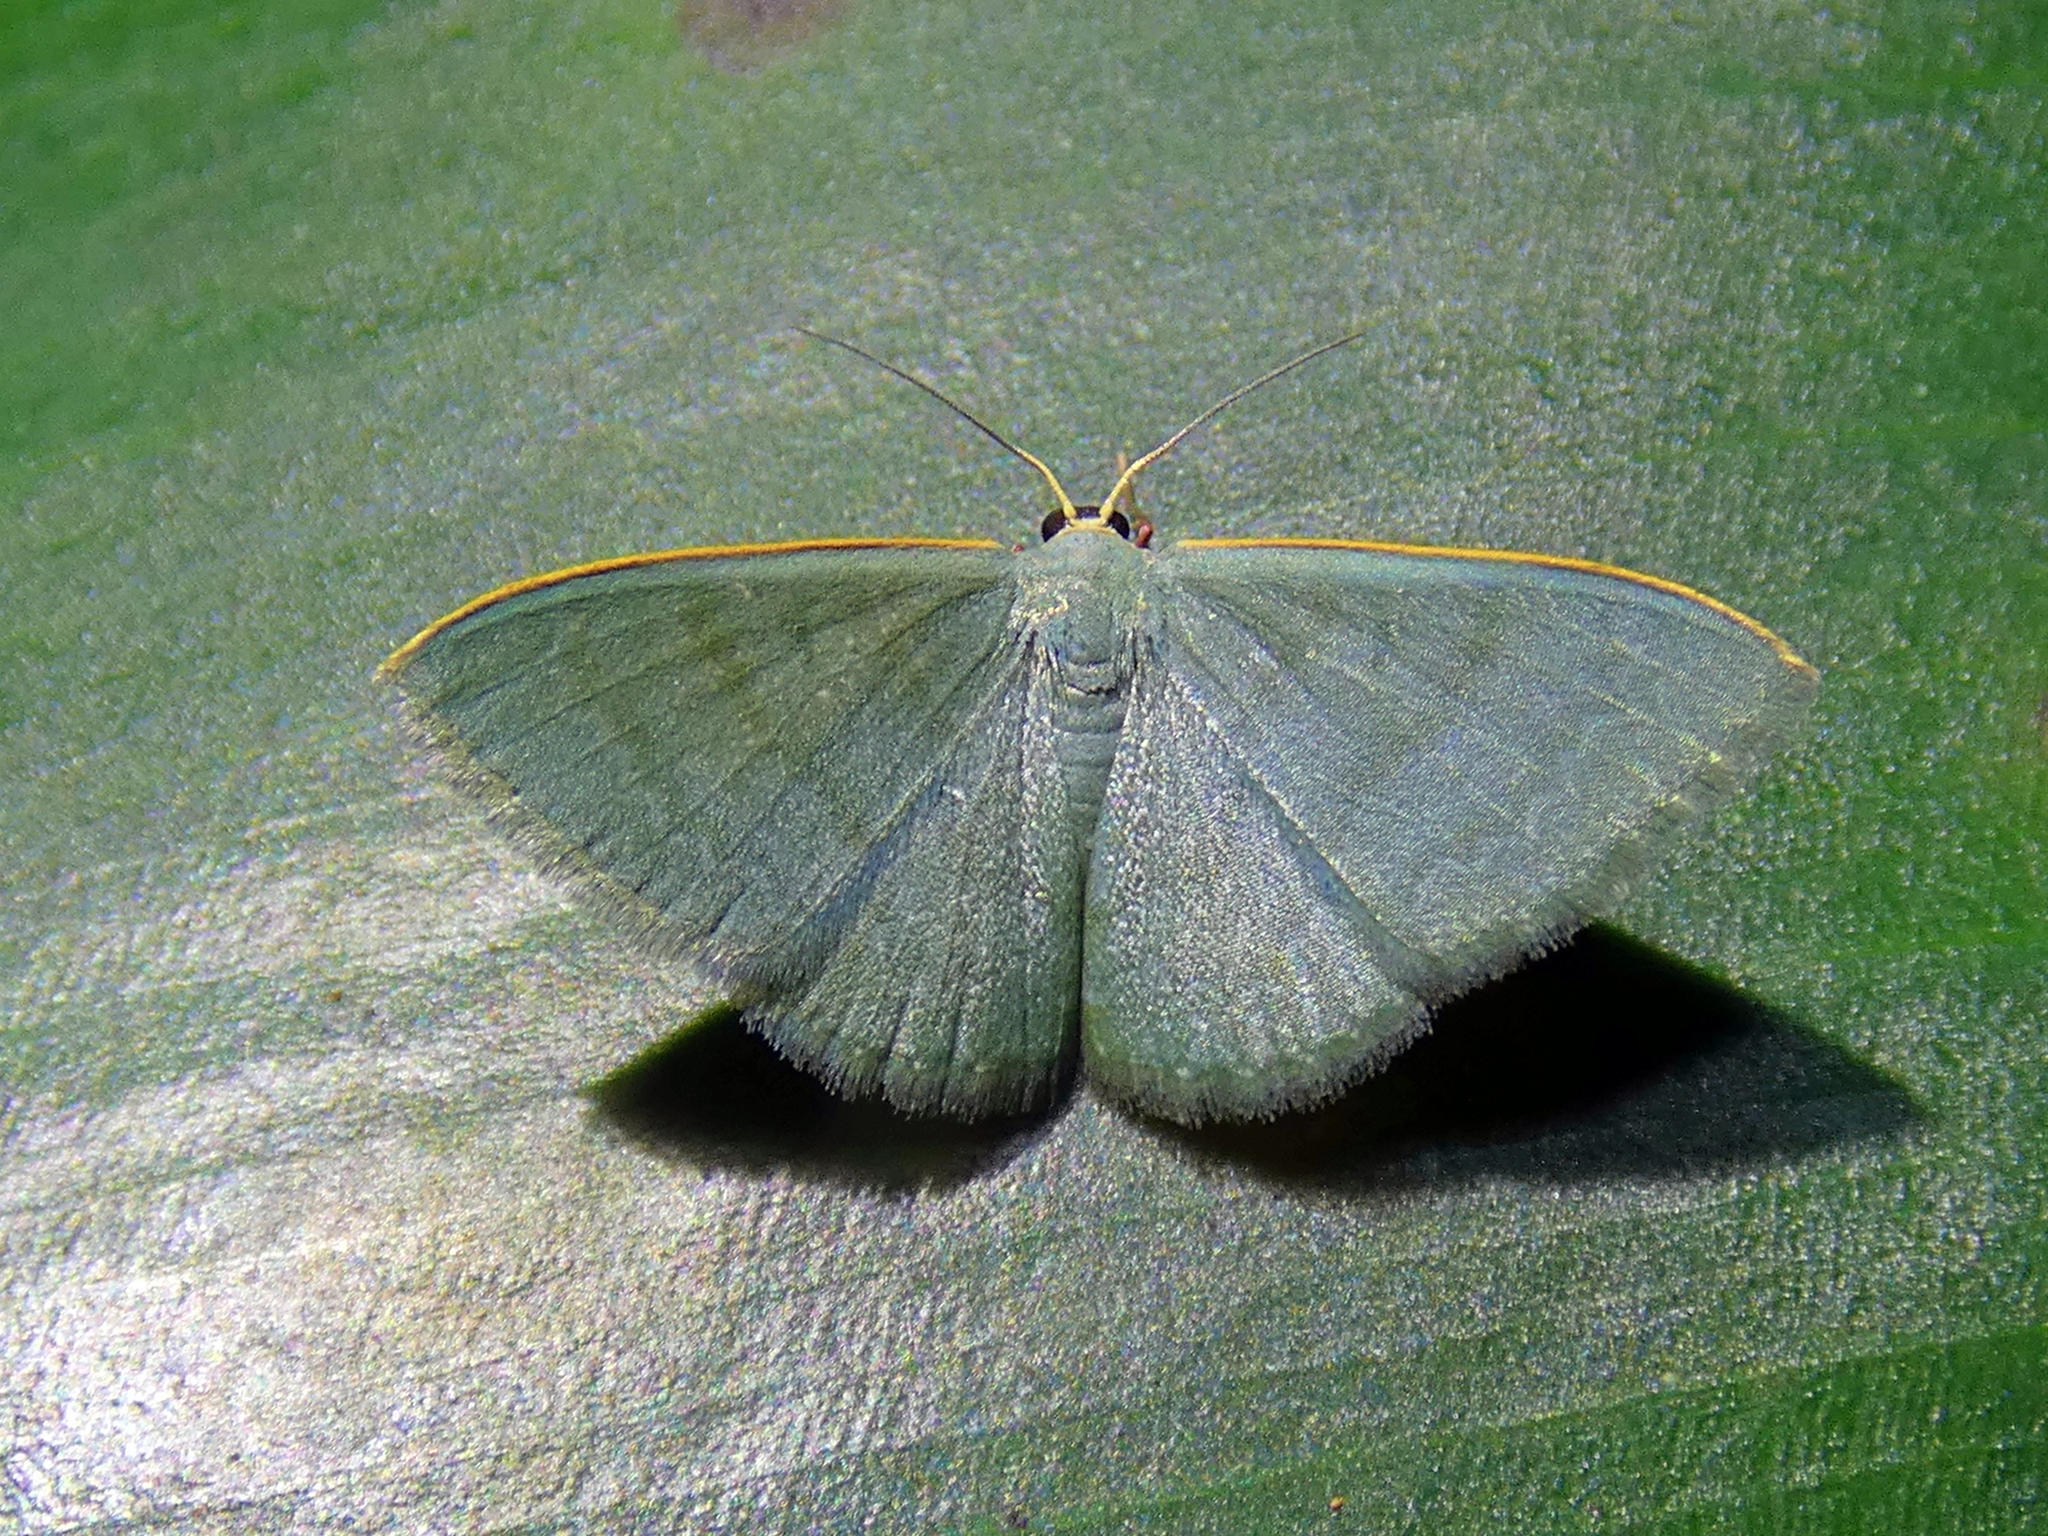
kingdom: Animalia
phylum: Arthropoda
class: Insecta
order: Lepidoptera
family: Geometridae
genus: Symmacra
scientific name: Symmacra solidaria
